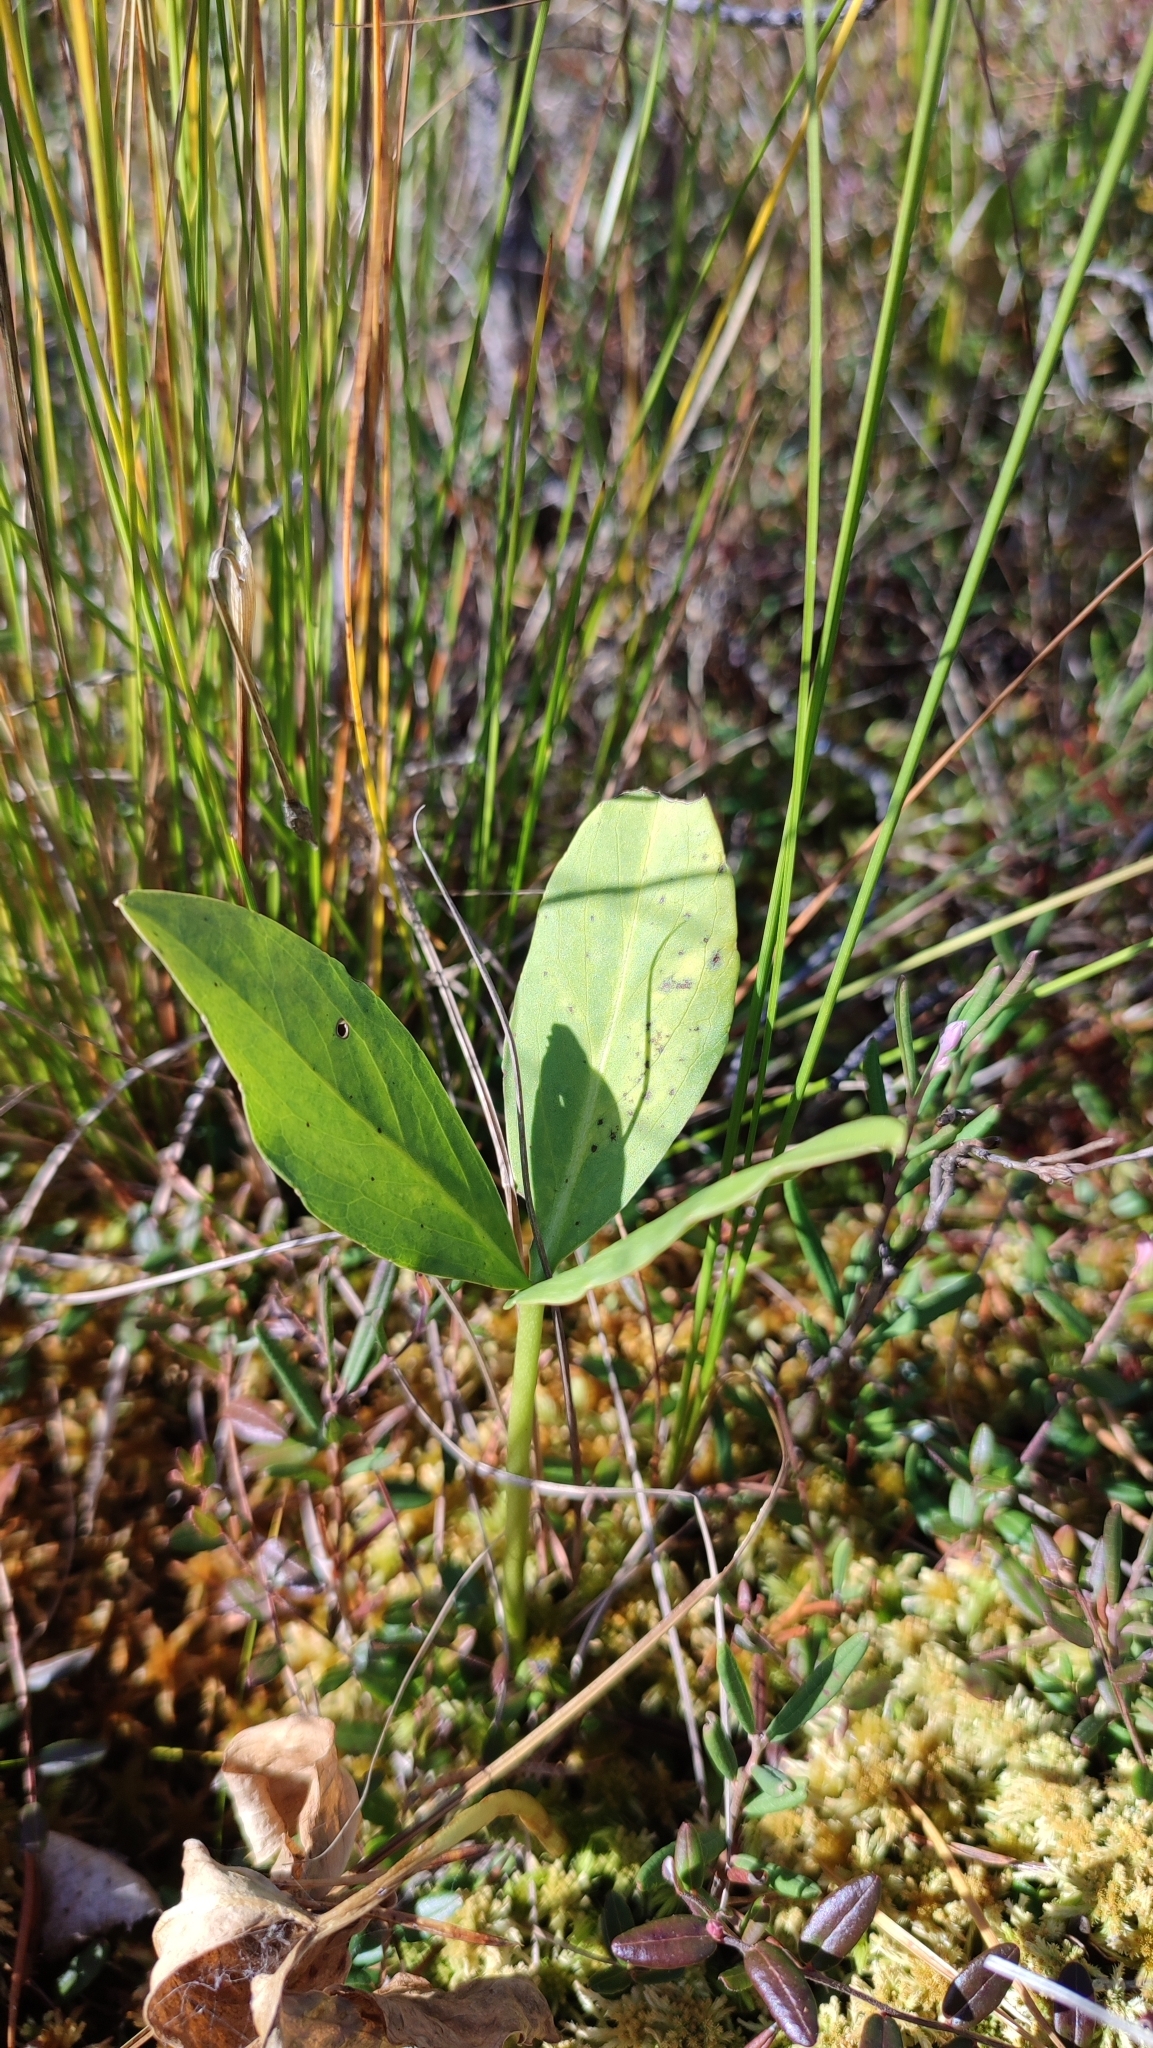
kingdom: Plantae
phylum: Tracheophyta
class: Magnoliopsida
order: Asterales
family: Menyanthaceae
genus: Menyanthes
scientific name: Menyanthes trifoliata
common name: Bogbean
